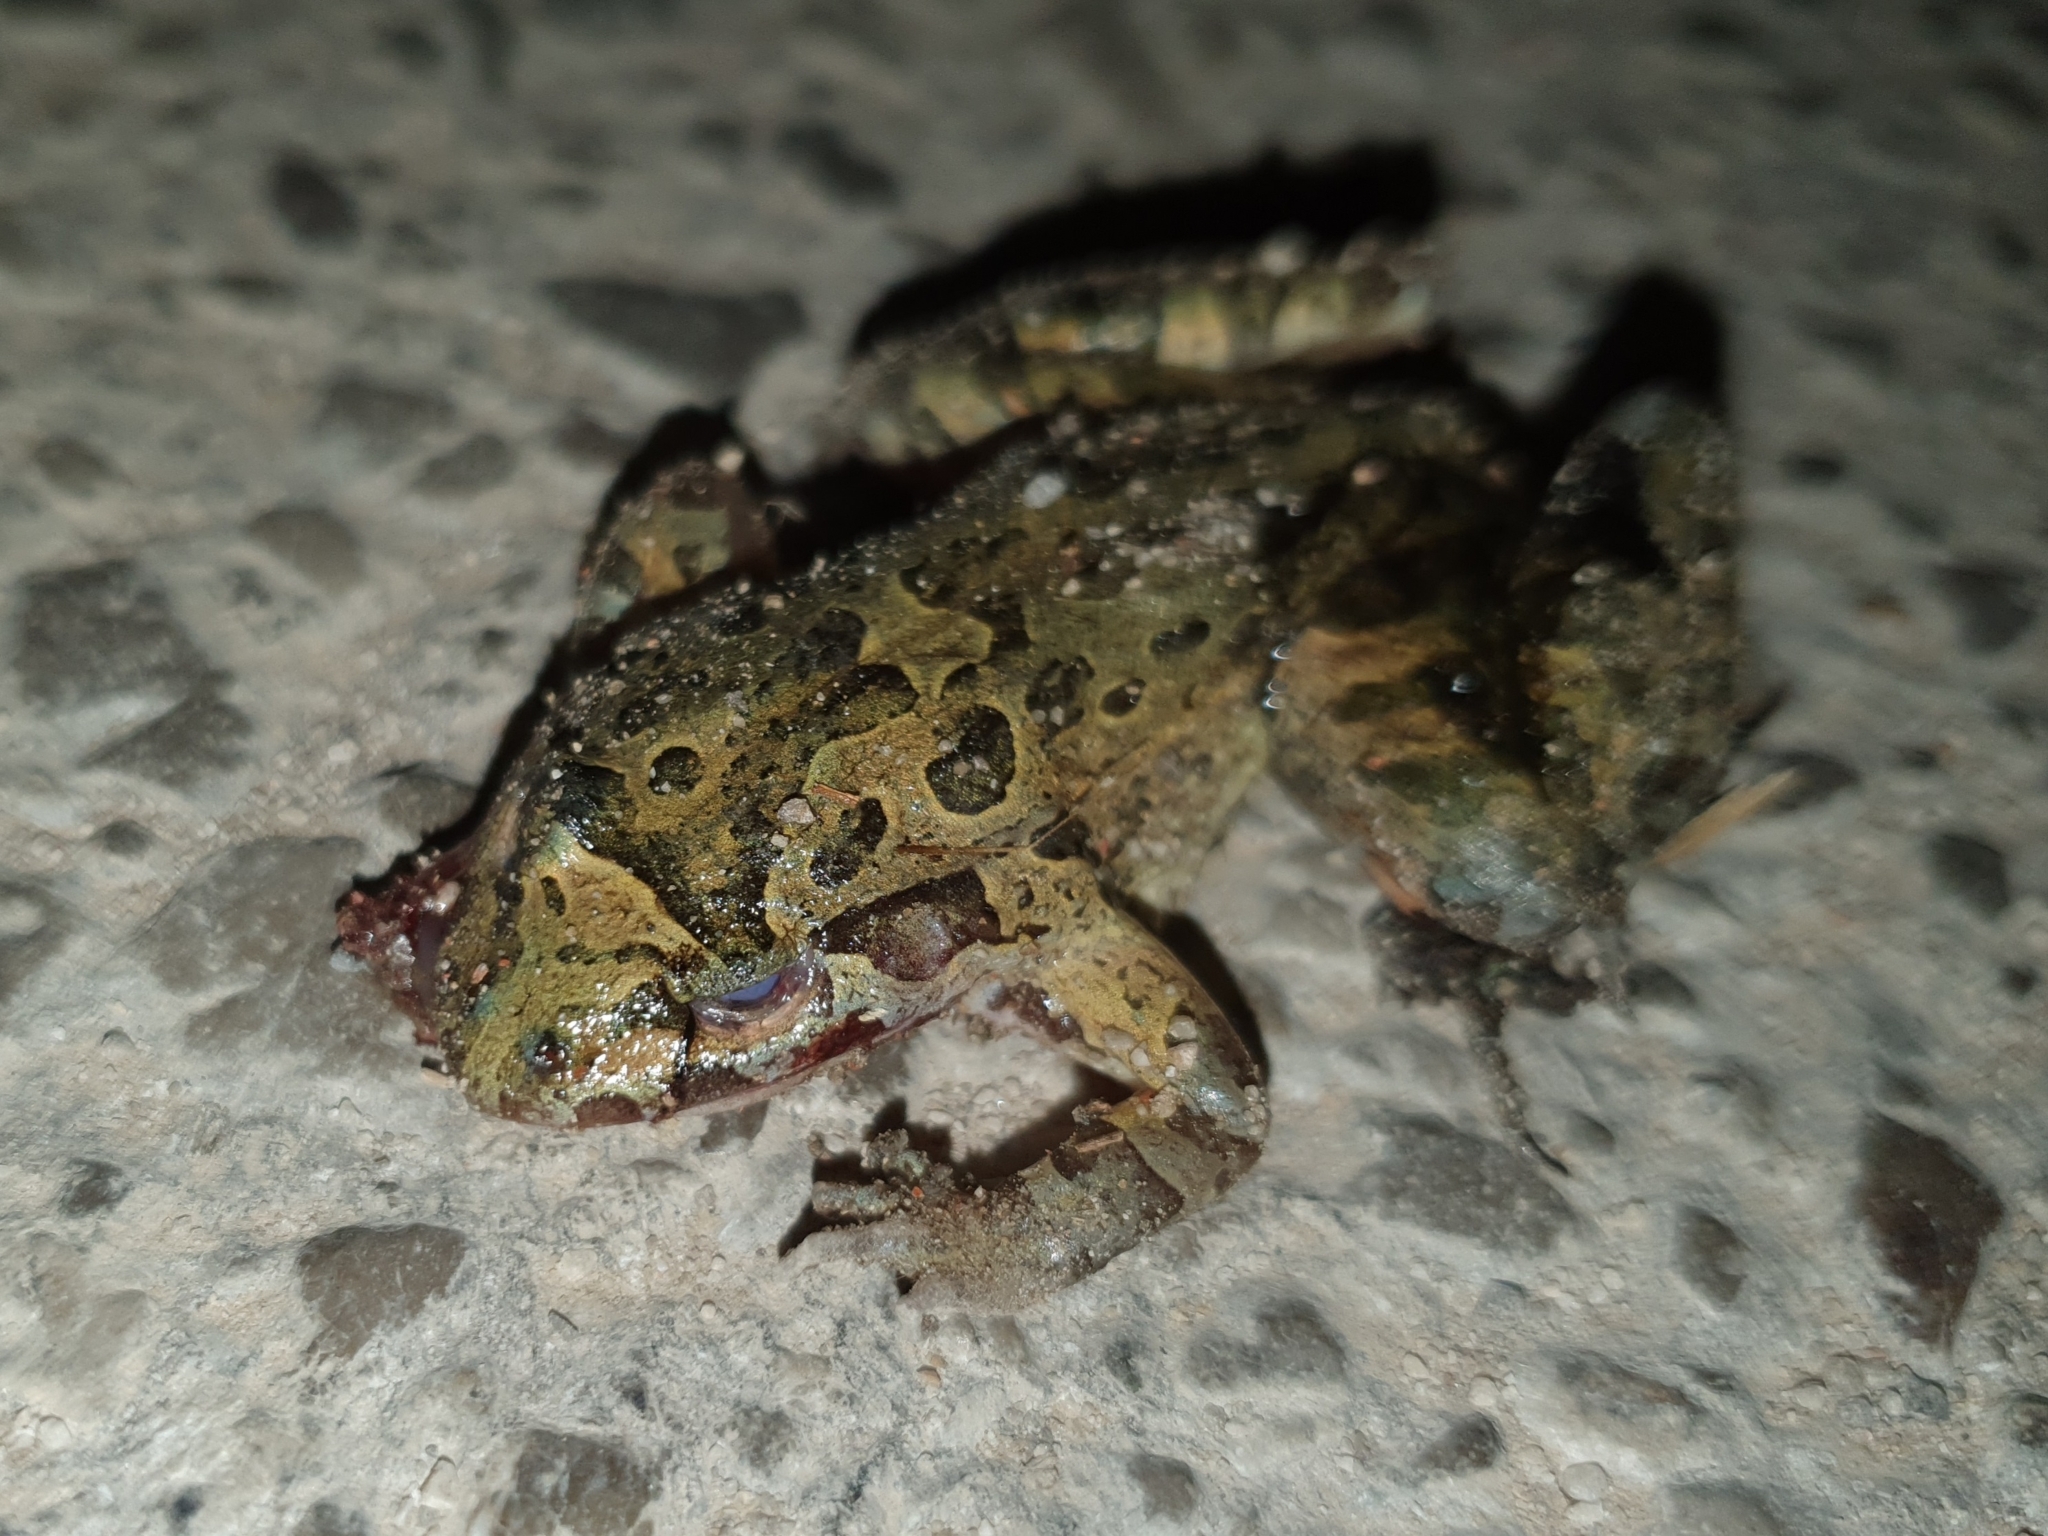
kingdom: Animalia
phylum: Chordata
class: Amphibia
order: Anura
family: Alytidae
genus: Discoglossus
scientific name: Discoglossus pictus
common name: Painted frog
